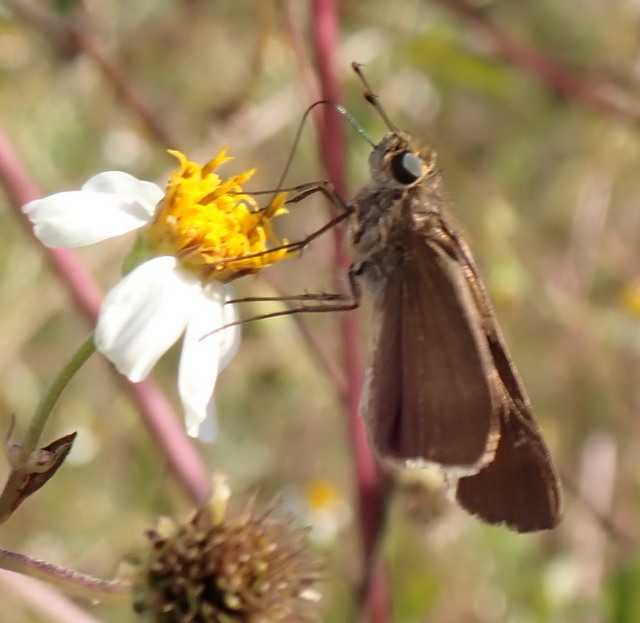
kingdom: Animalia
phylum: Arthropoda
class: Insecta
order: Lepidoptera
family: Hesperiidae
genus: Panoquina
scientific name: Panoquina ocola
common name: Ocola skipper
